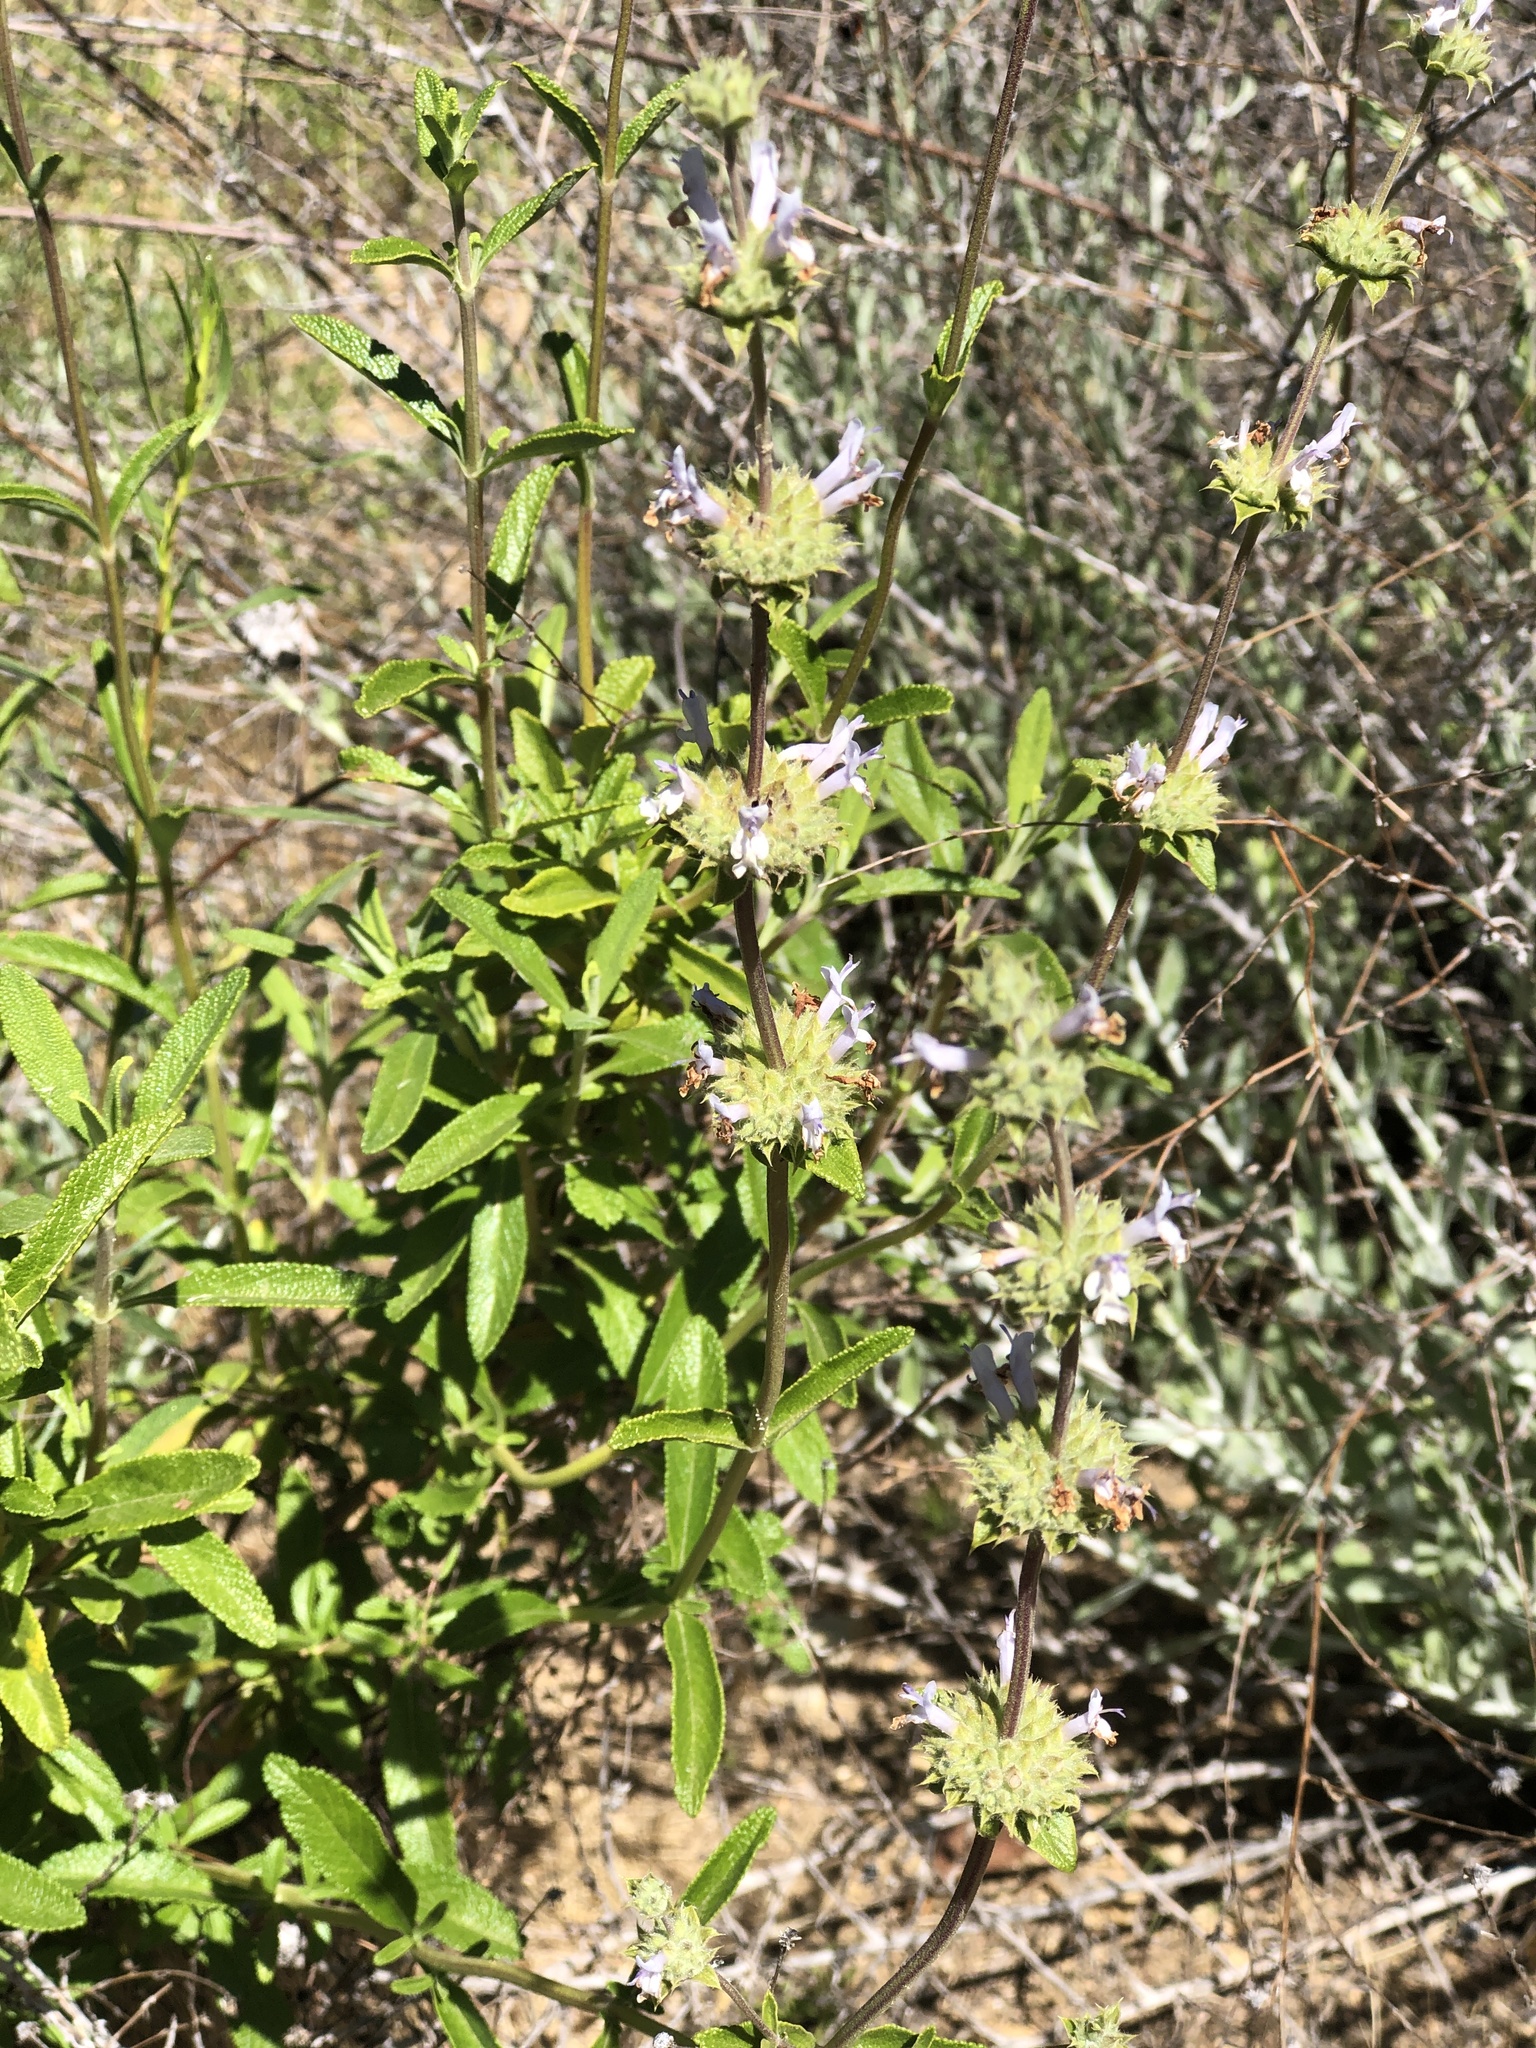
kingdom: Plantae
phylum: Tracheophyta
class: Magnoliopsida
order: Lamiales
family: Lamiaceae
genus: Salvia
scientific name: Salvia mellifera
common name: Black sage
